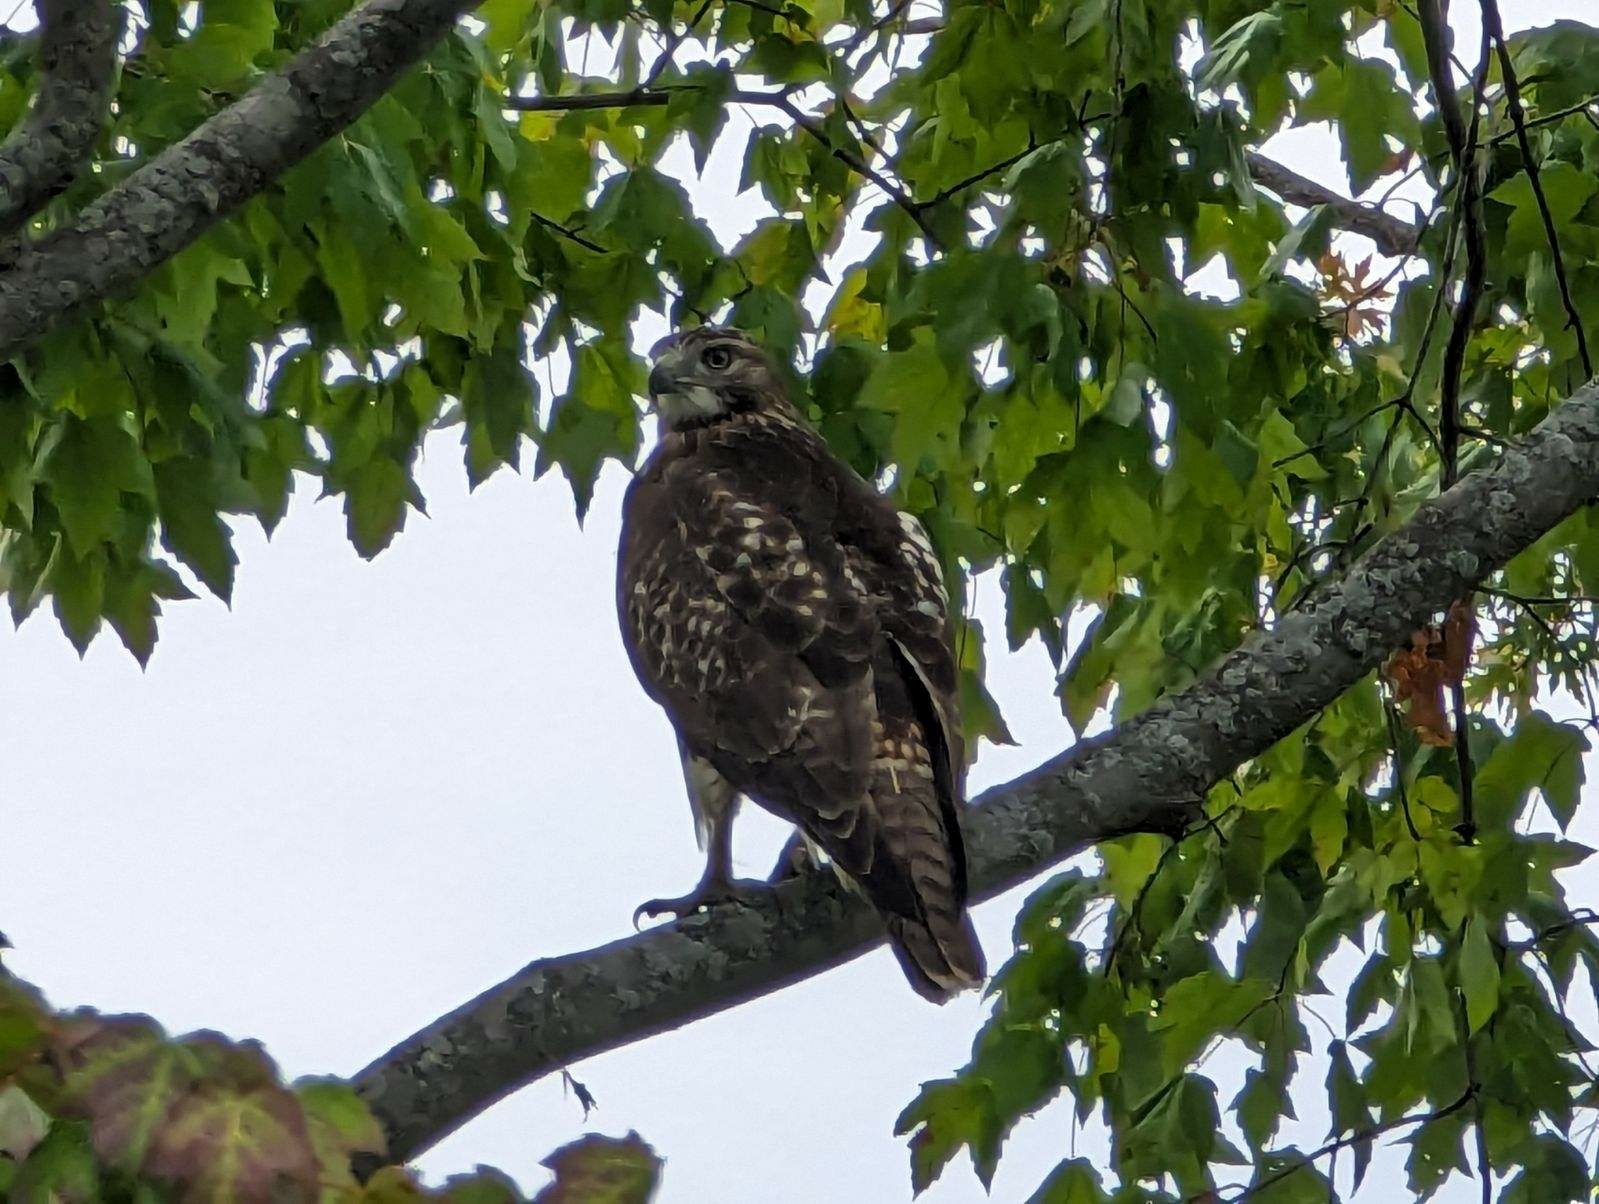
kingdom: Animalia
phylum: Chordata
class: Aves
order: Accipitriformes
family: Accipitridae
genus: Buteo
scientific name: Buteo jamaicensis
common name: Red-tailed hawk
